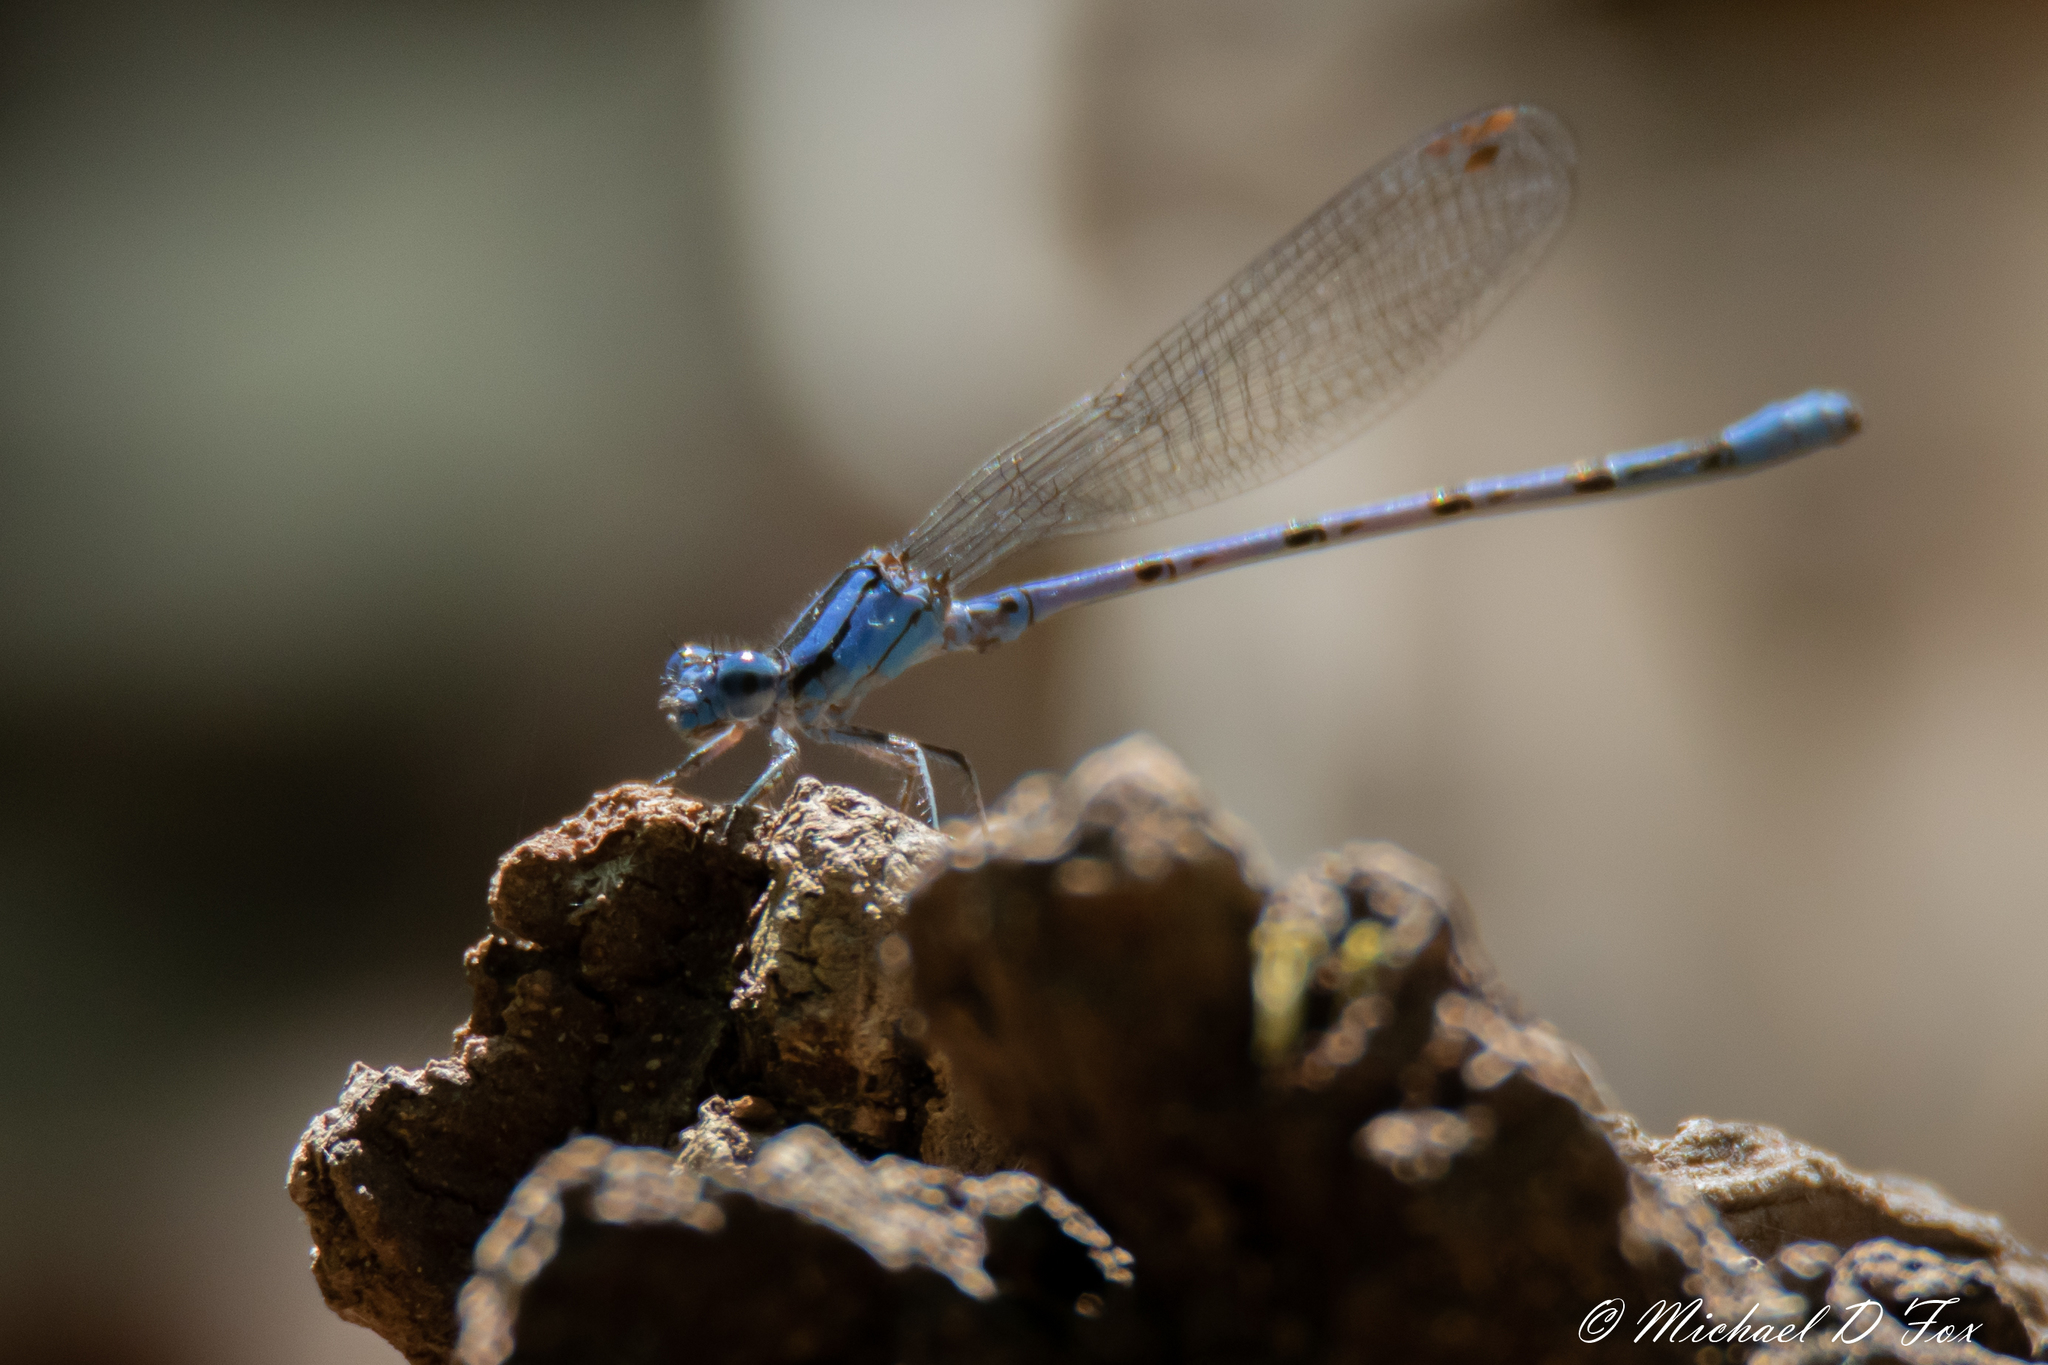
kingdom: Animalia
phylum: Arthropoda
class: Insecta
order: Odonata
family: Coenagrionidae
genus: Argia
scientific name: Argia funebris
